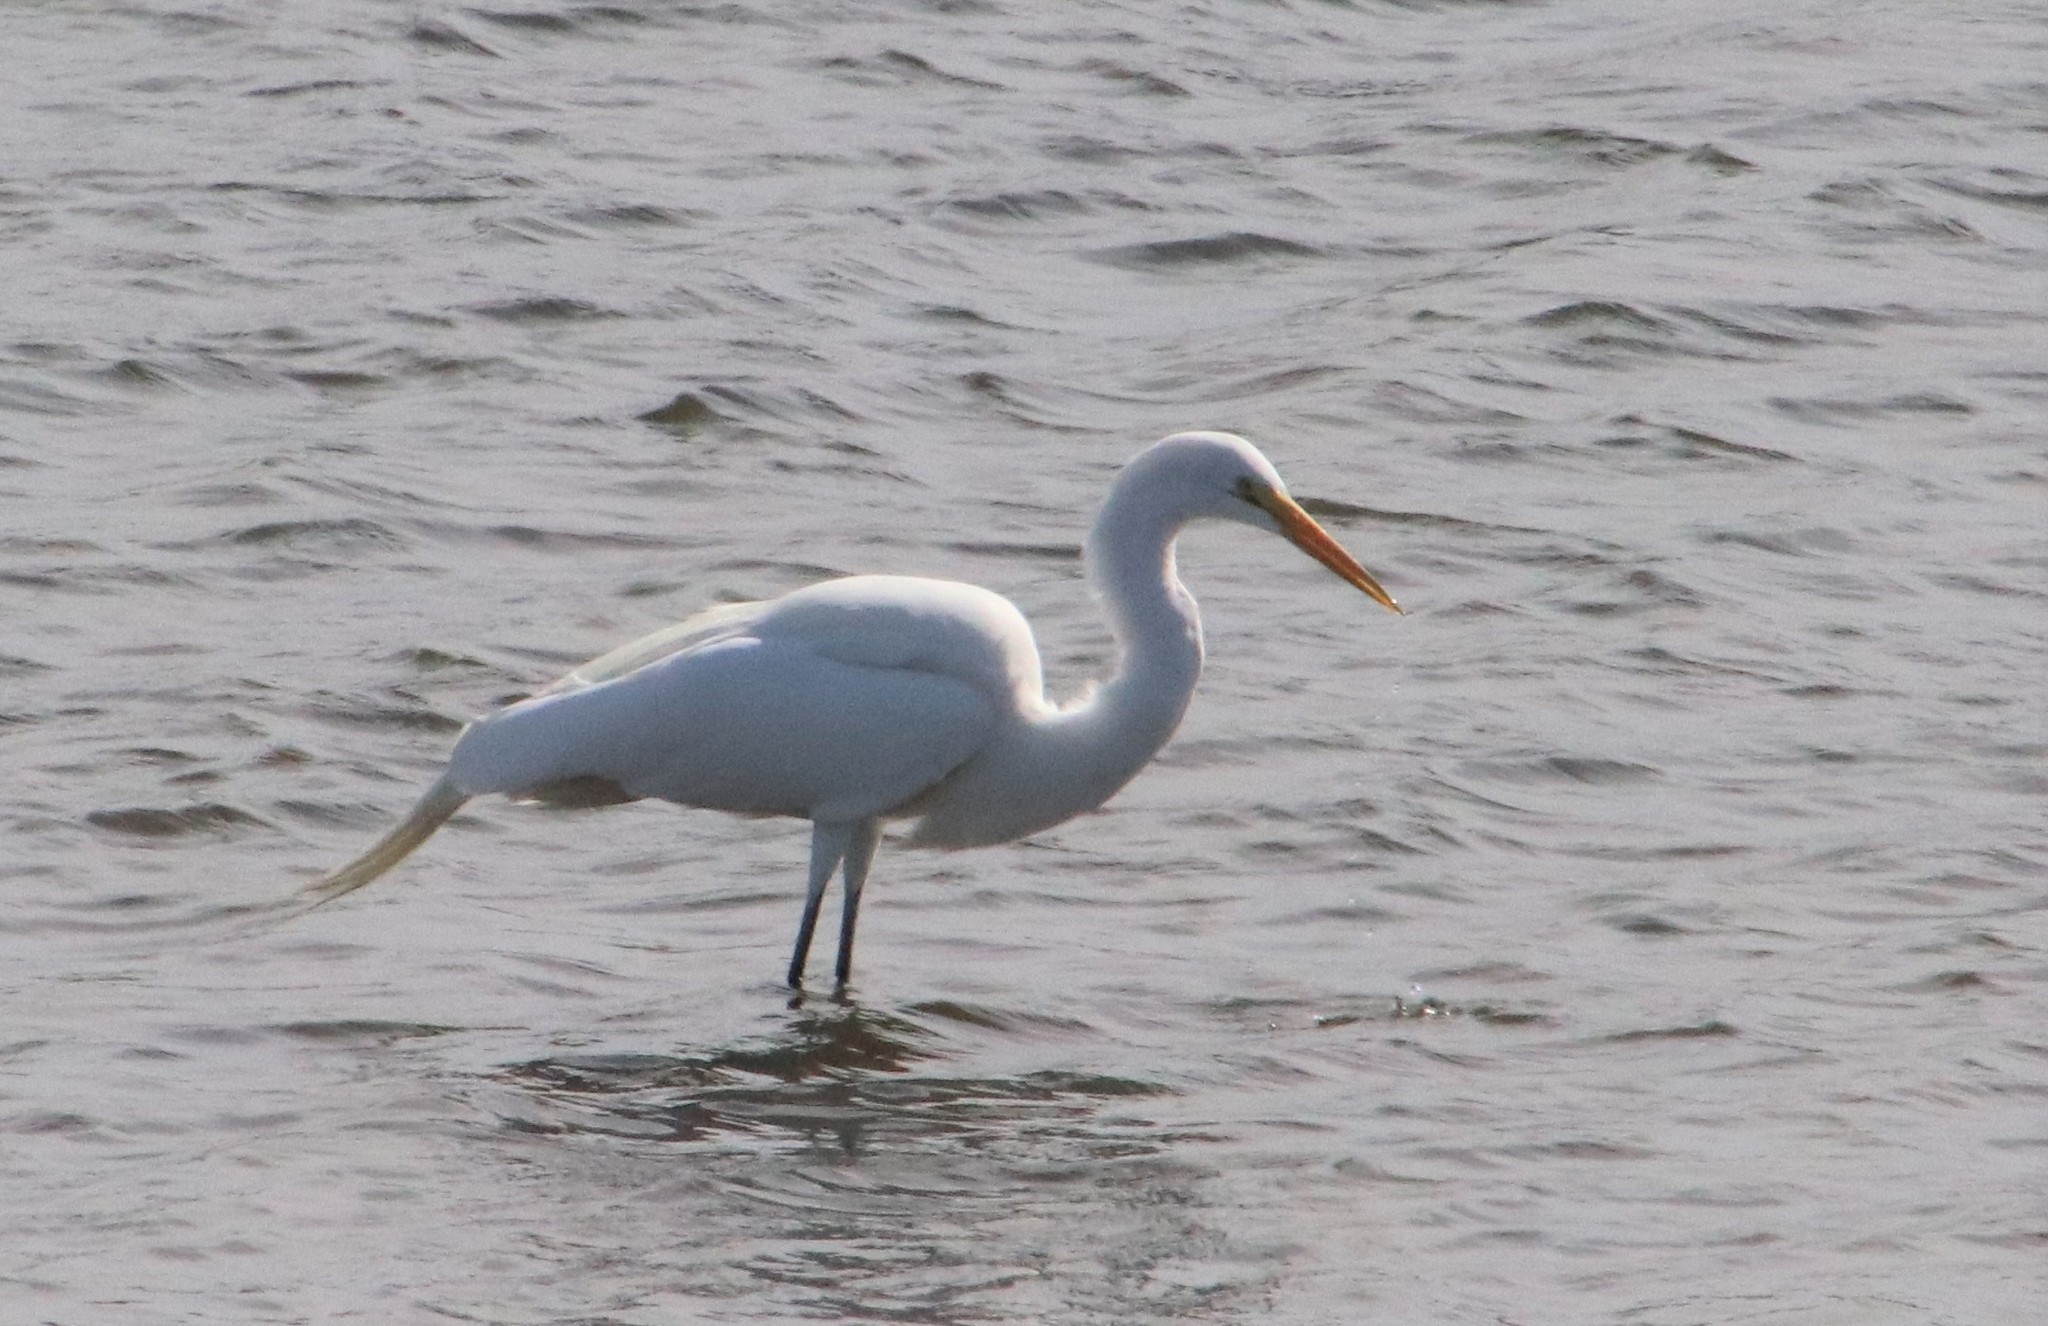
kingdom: Animalia
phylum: Chordata
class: Aves
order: Pelecaniformes
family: Ardeidae
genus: Ardea
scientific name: Ardea alba
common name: Great egret
